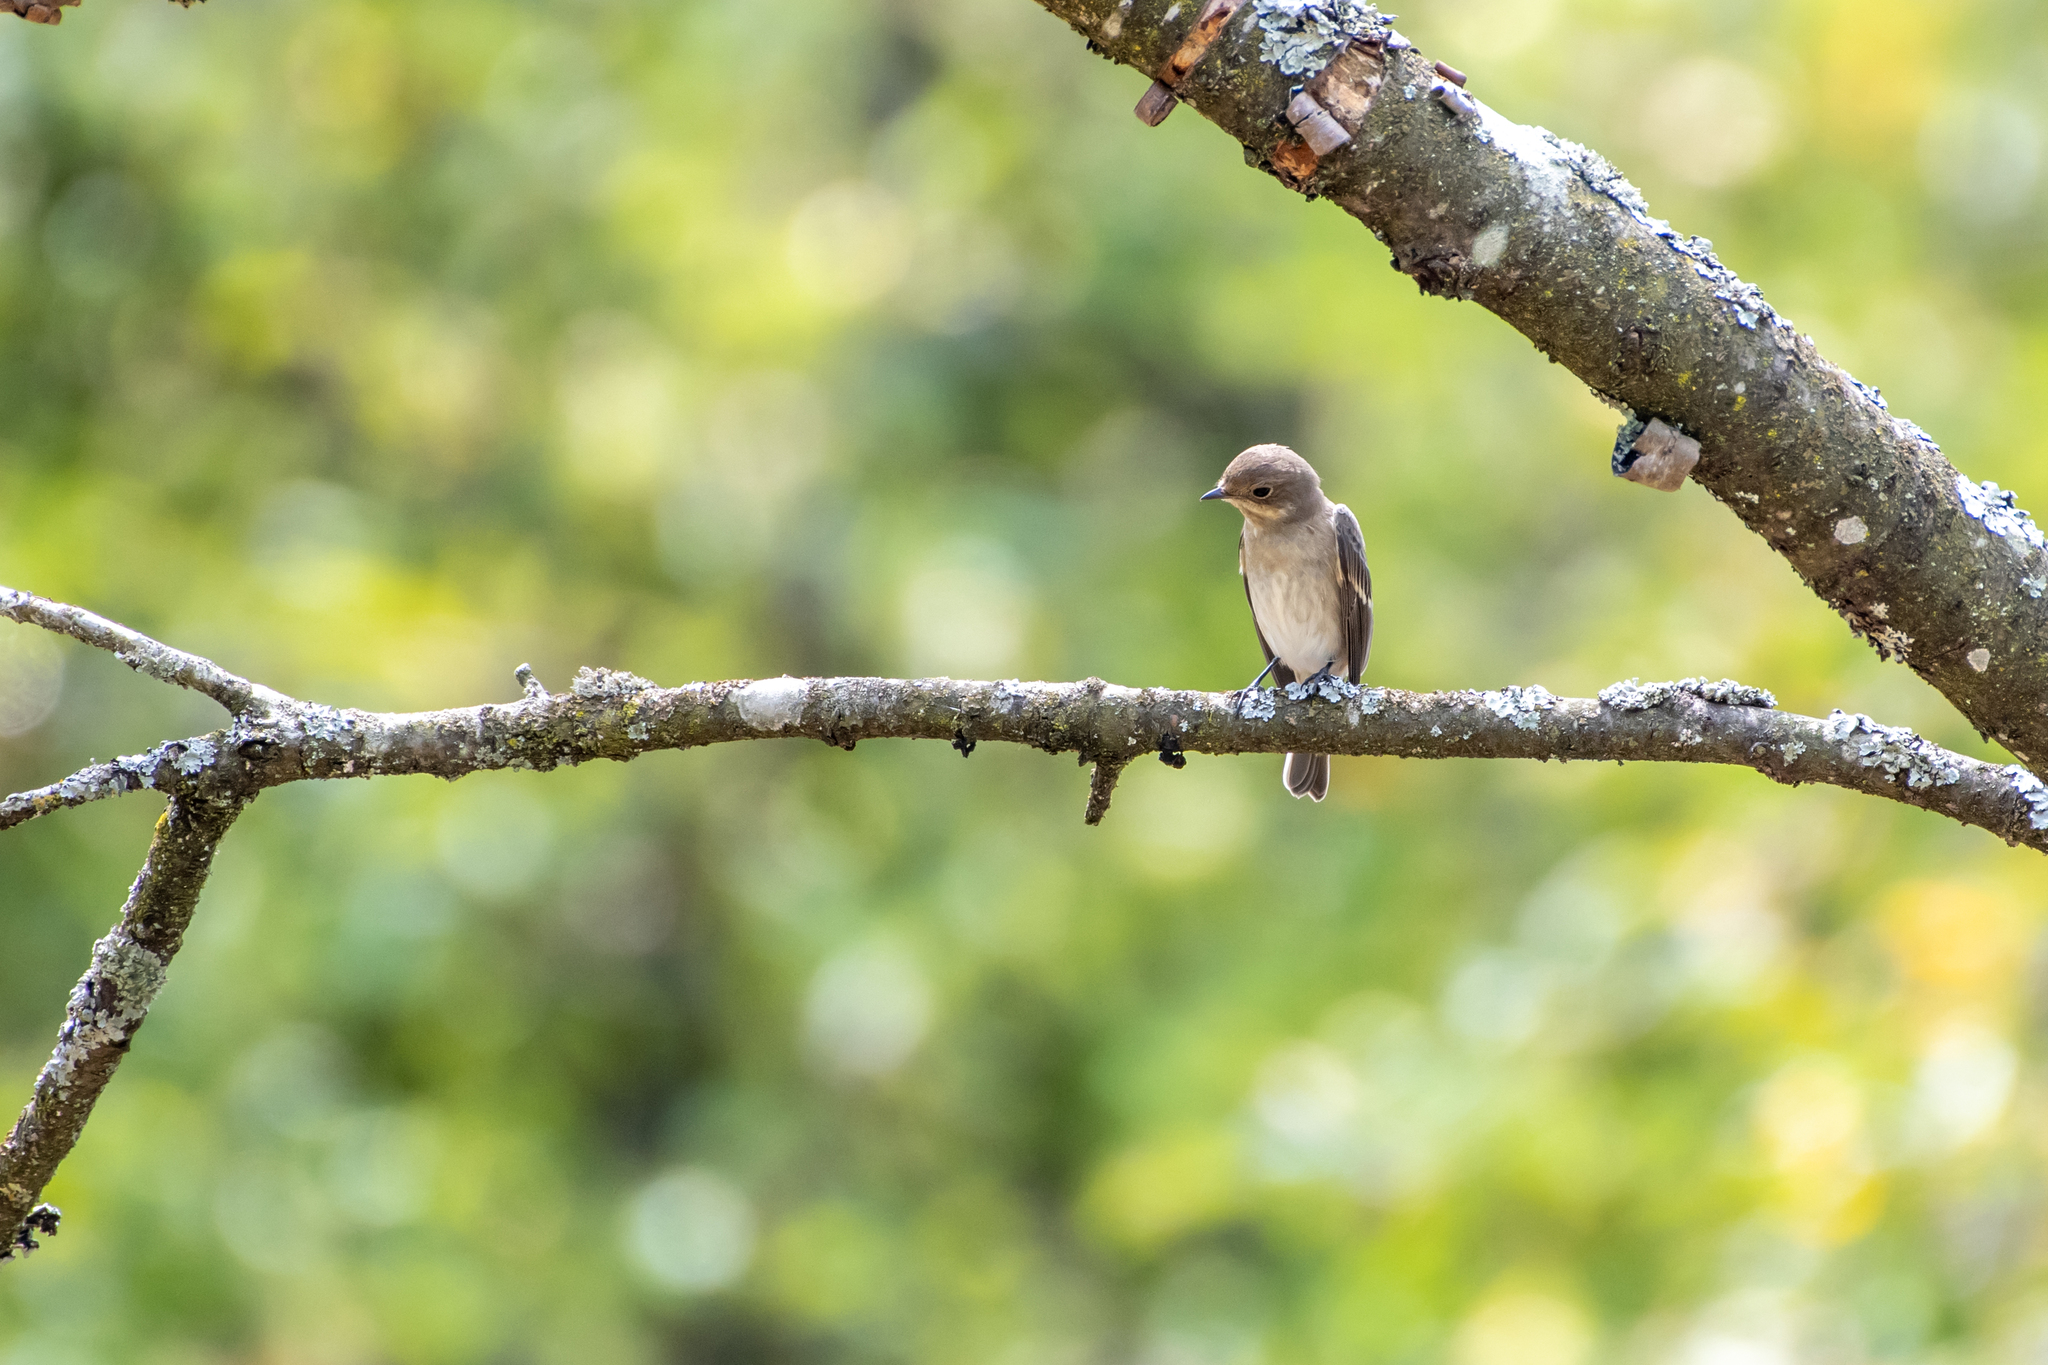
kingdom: Animalia
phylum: Chordata
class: Aves
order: Passeriformes
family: Muscicapidae
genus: Ficedula
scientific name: Ficedula hypoleuca
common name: European pied flycatcher
